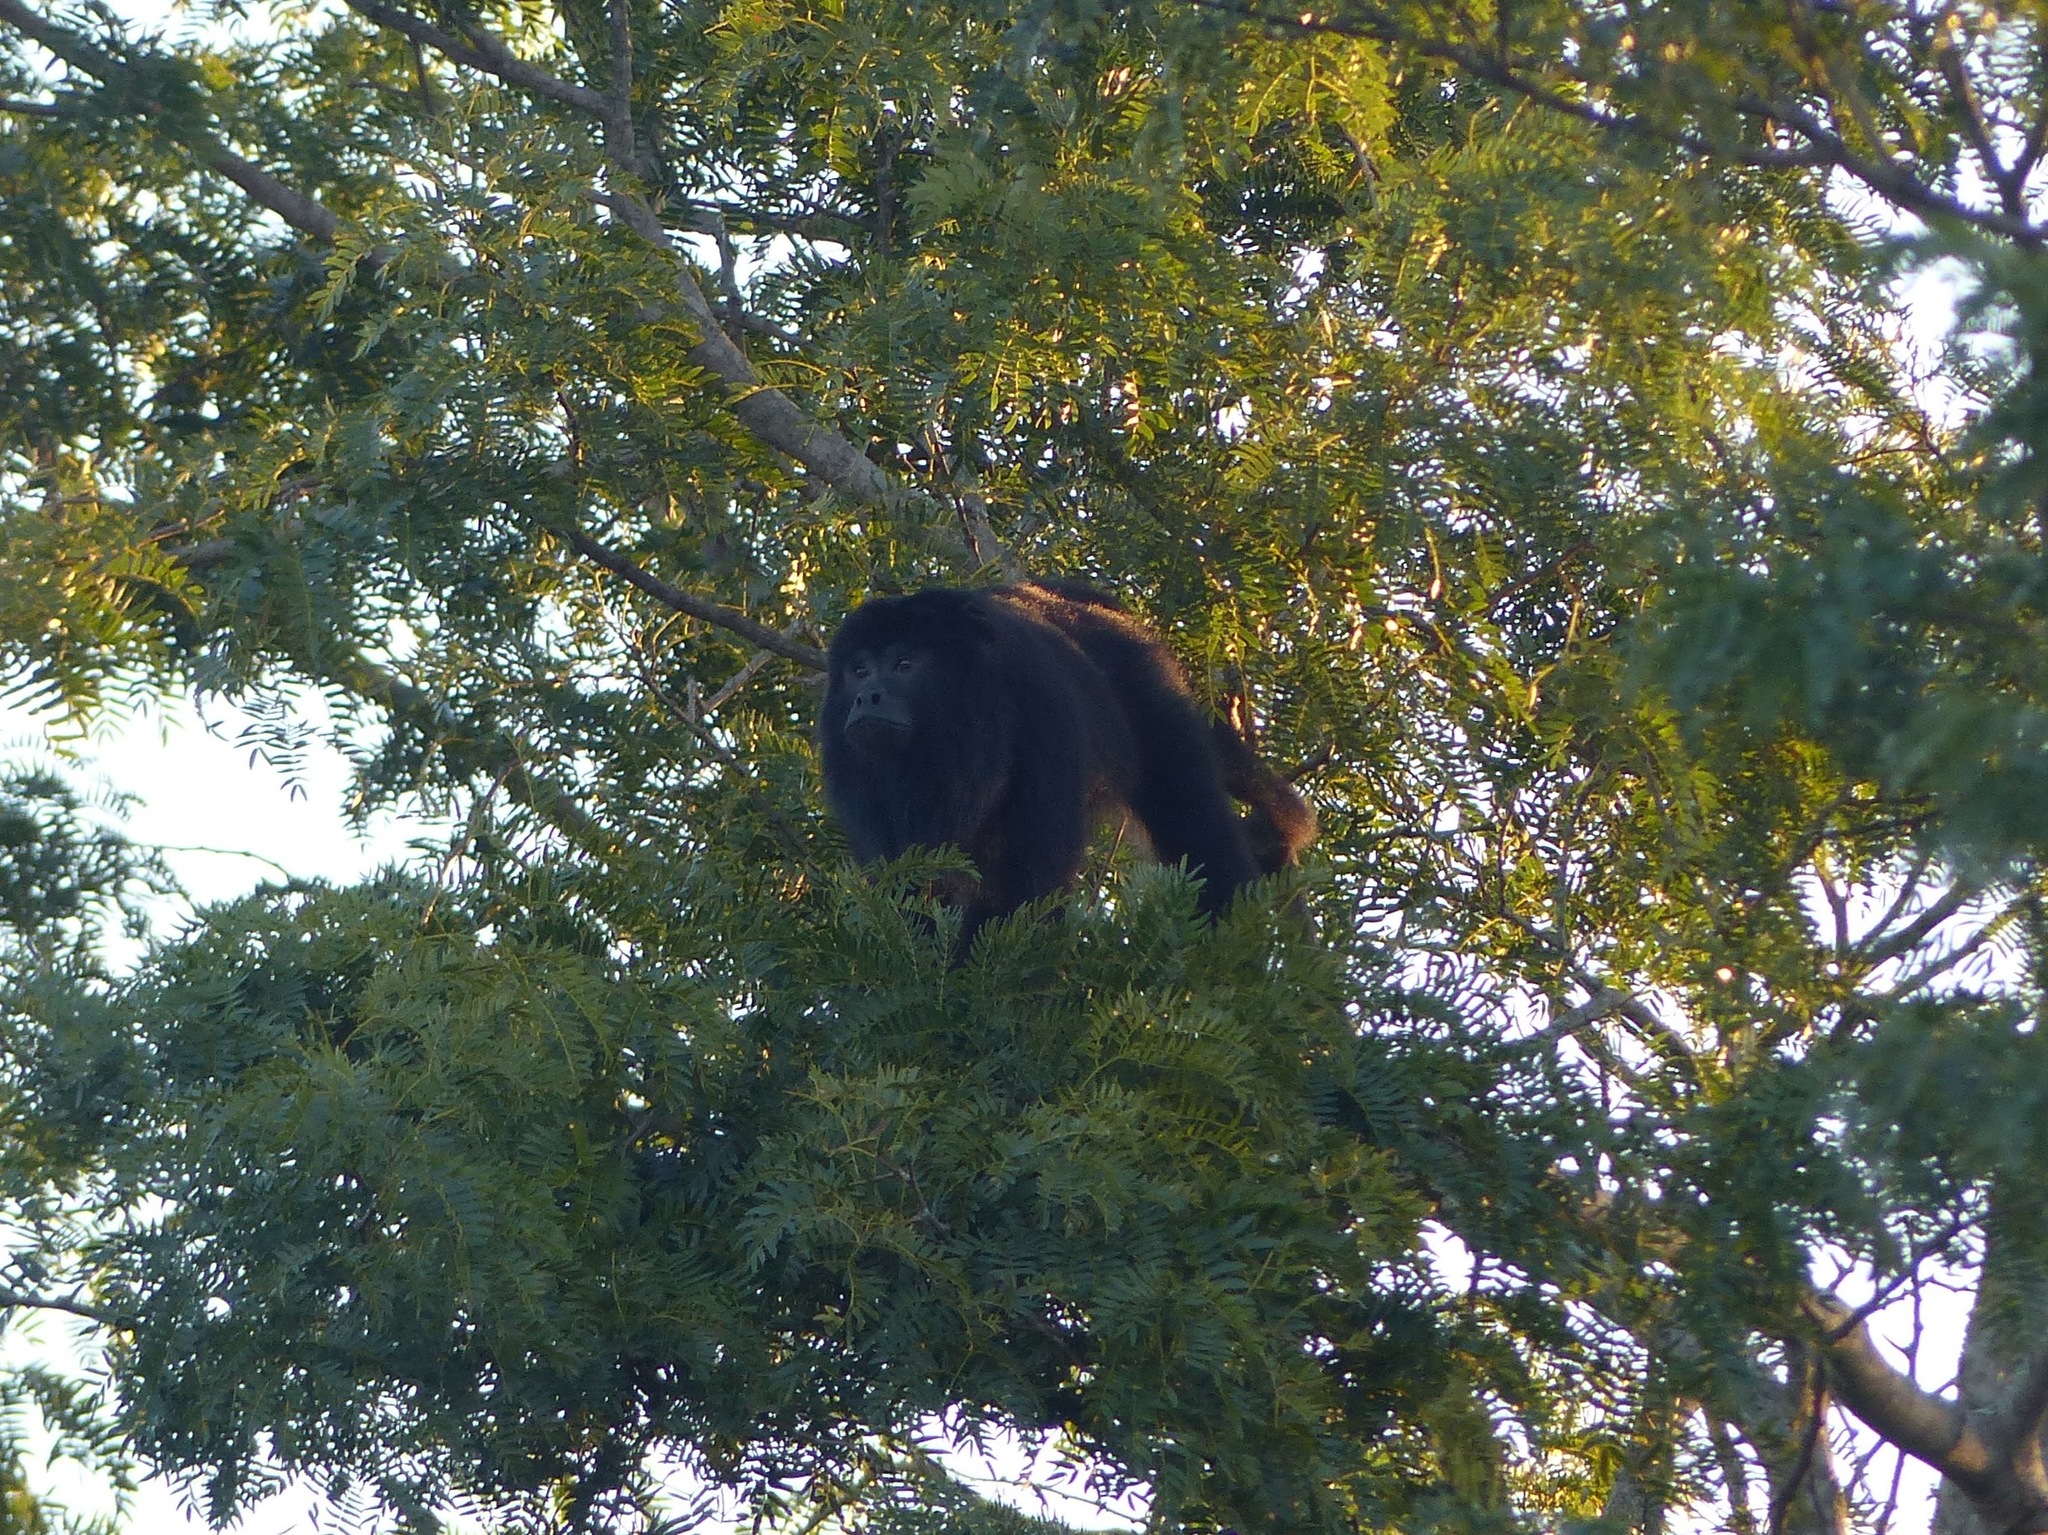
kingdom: Animalia
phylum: Chordata
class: Mammalia
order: Primates
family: Atelidae
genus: Alouatta
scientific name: Alouatta caraya
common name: Black howler
